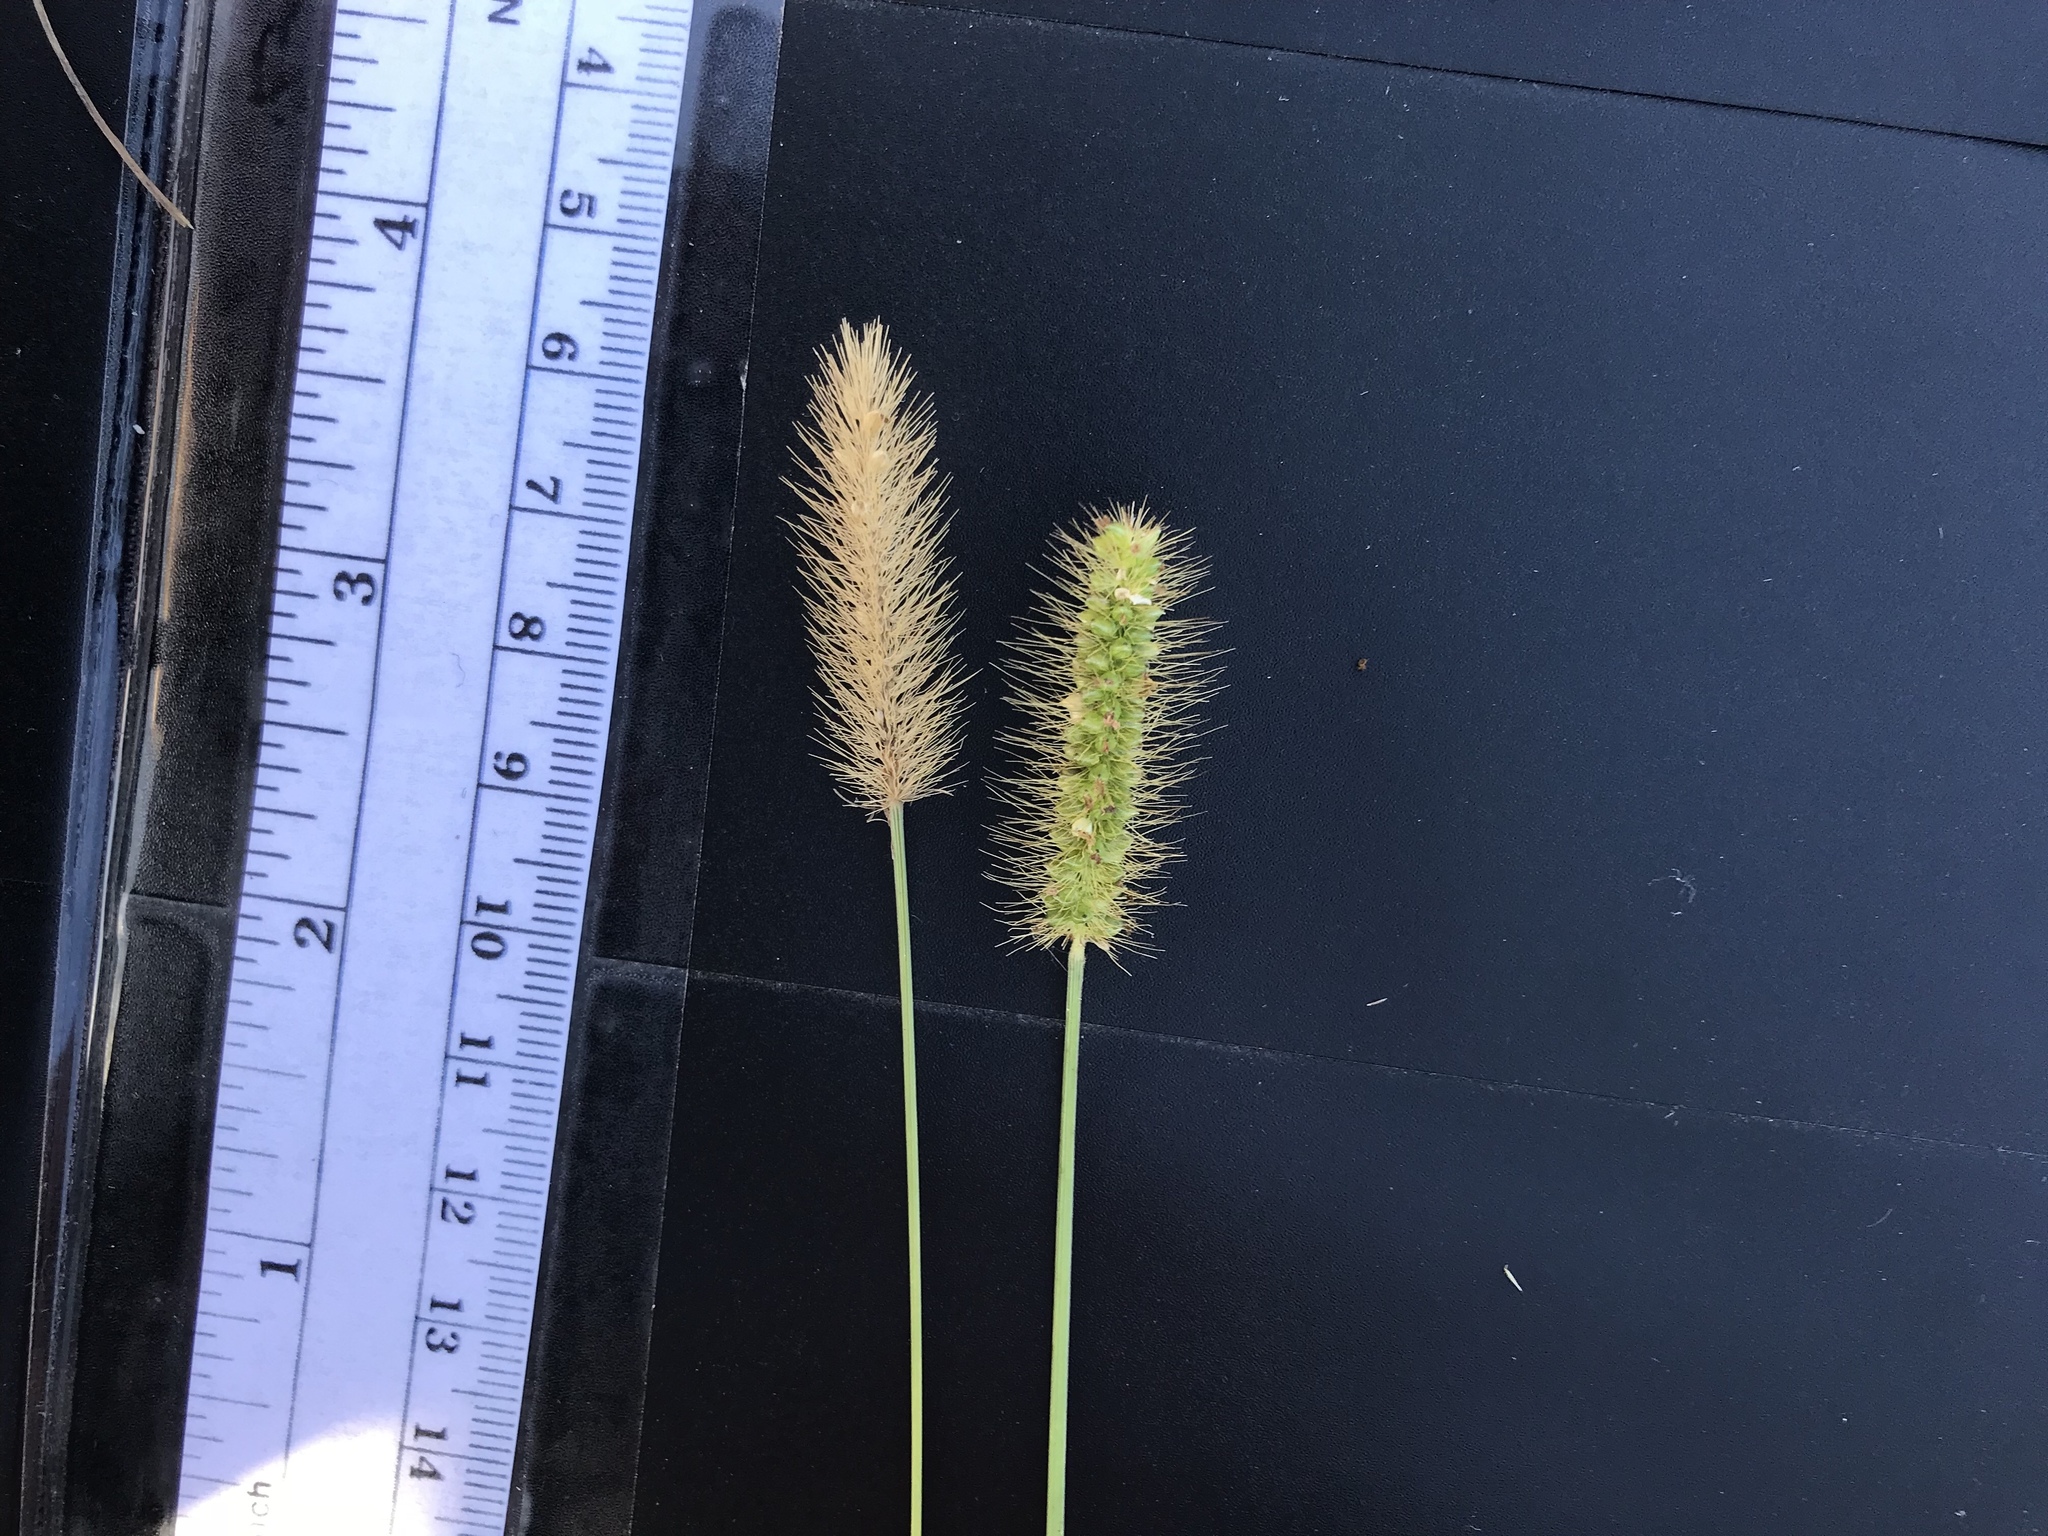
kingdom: Plantae
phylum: Tracheophyta
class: Liliopsida
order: Poales
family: Poaceae
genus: Setaria
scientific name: Setaria parviflora
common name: Knotroot bristle-grass
